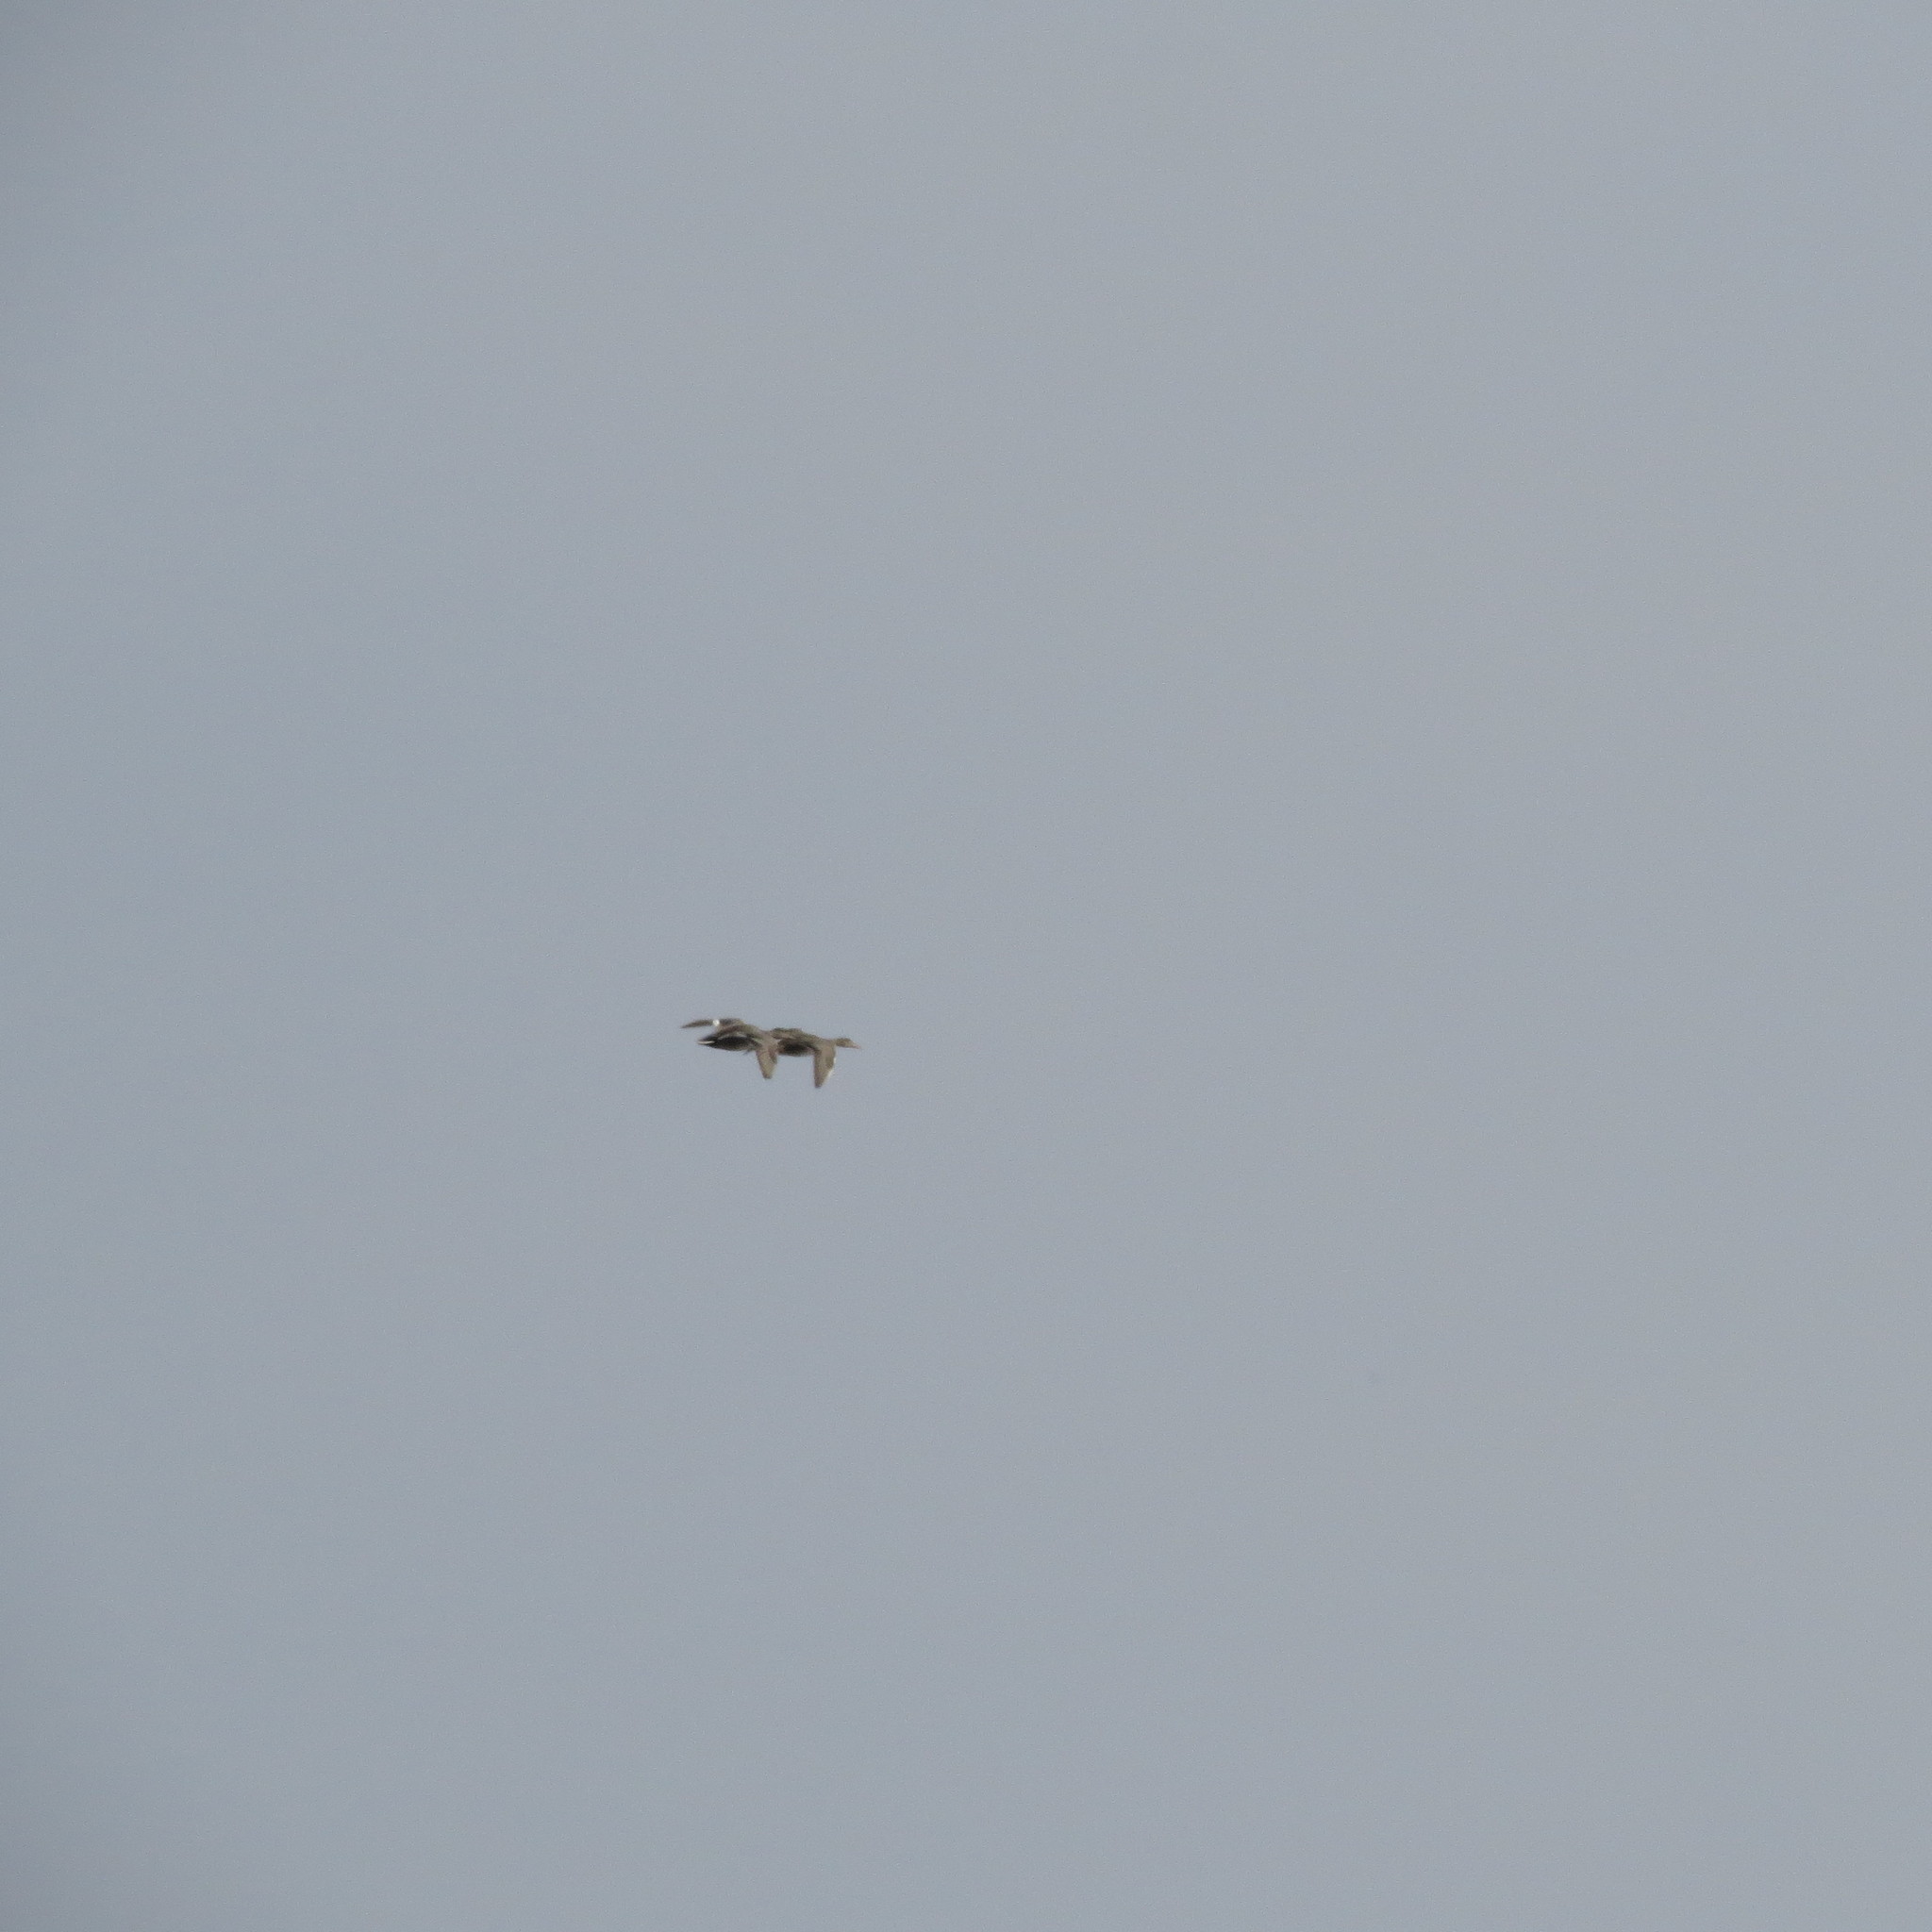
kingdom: Animalia
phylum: Chordata
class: Aves
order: Anseriformes
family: Anatidae
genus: Mareca
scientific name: Mareca strepera
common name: Gadwall
